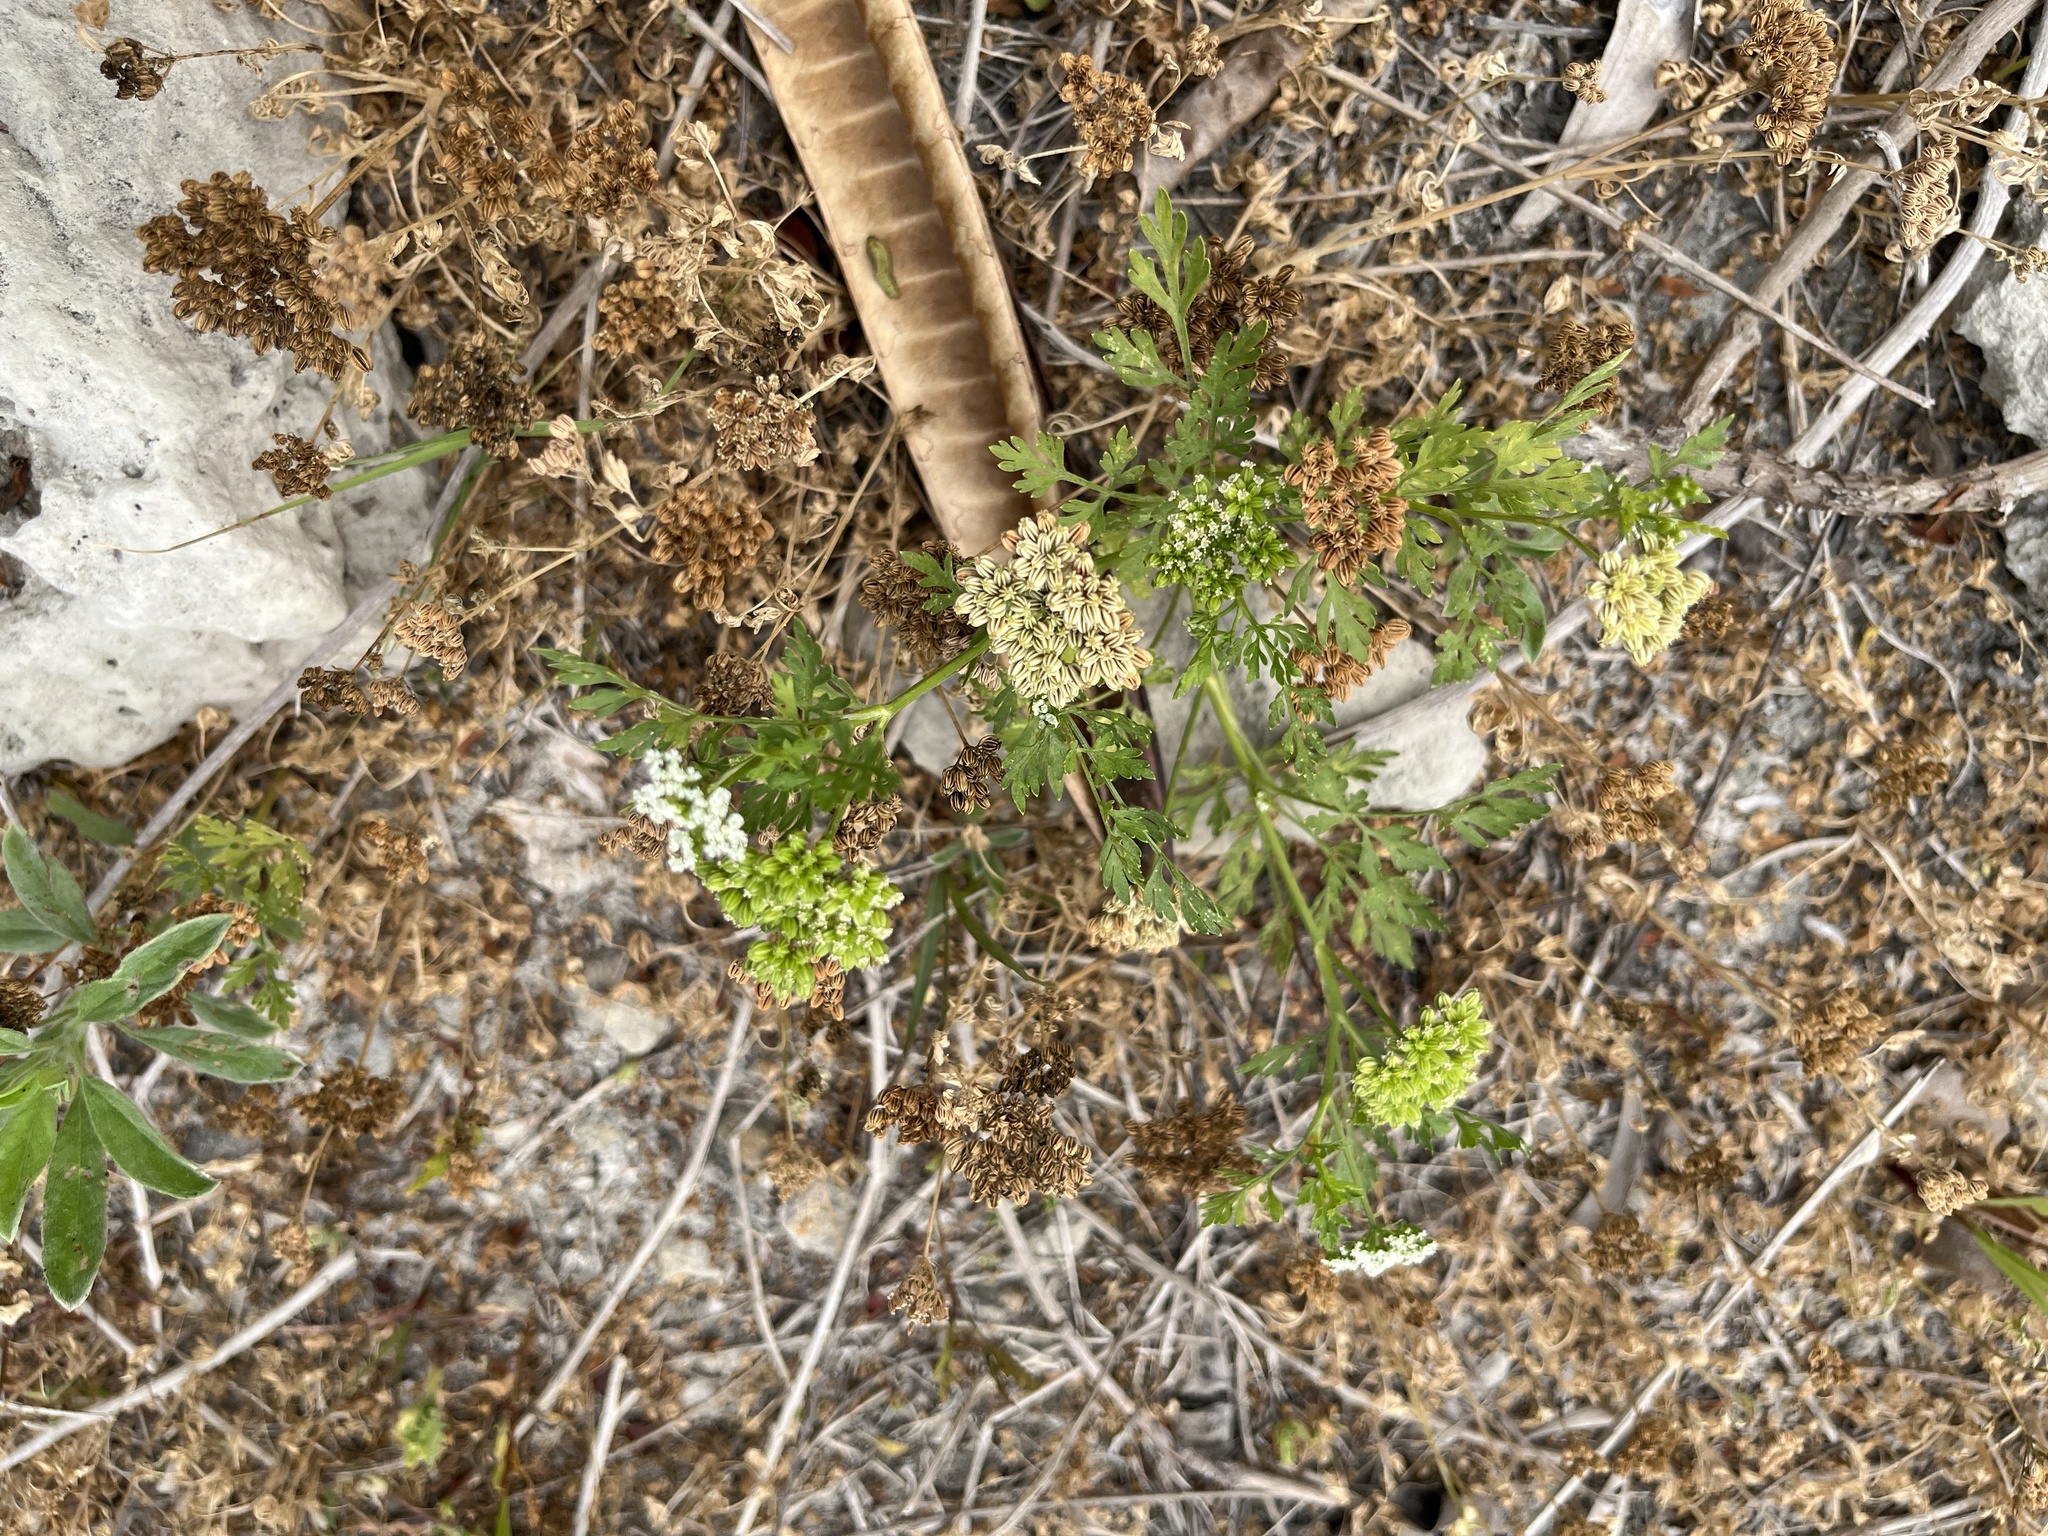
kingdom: Plantae
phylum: Tracheophyta
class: Magnoliopsida
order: Apiales
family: Apiaceae
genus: Oenanthe
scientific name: Oenanthe javanica
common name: Java water-dropwort
